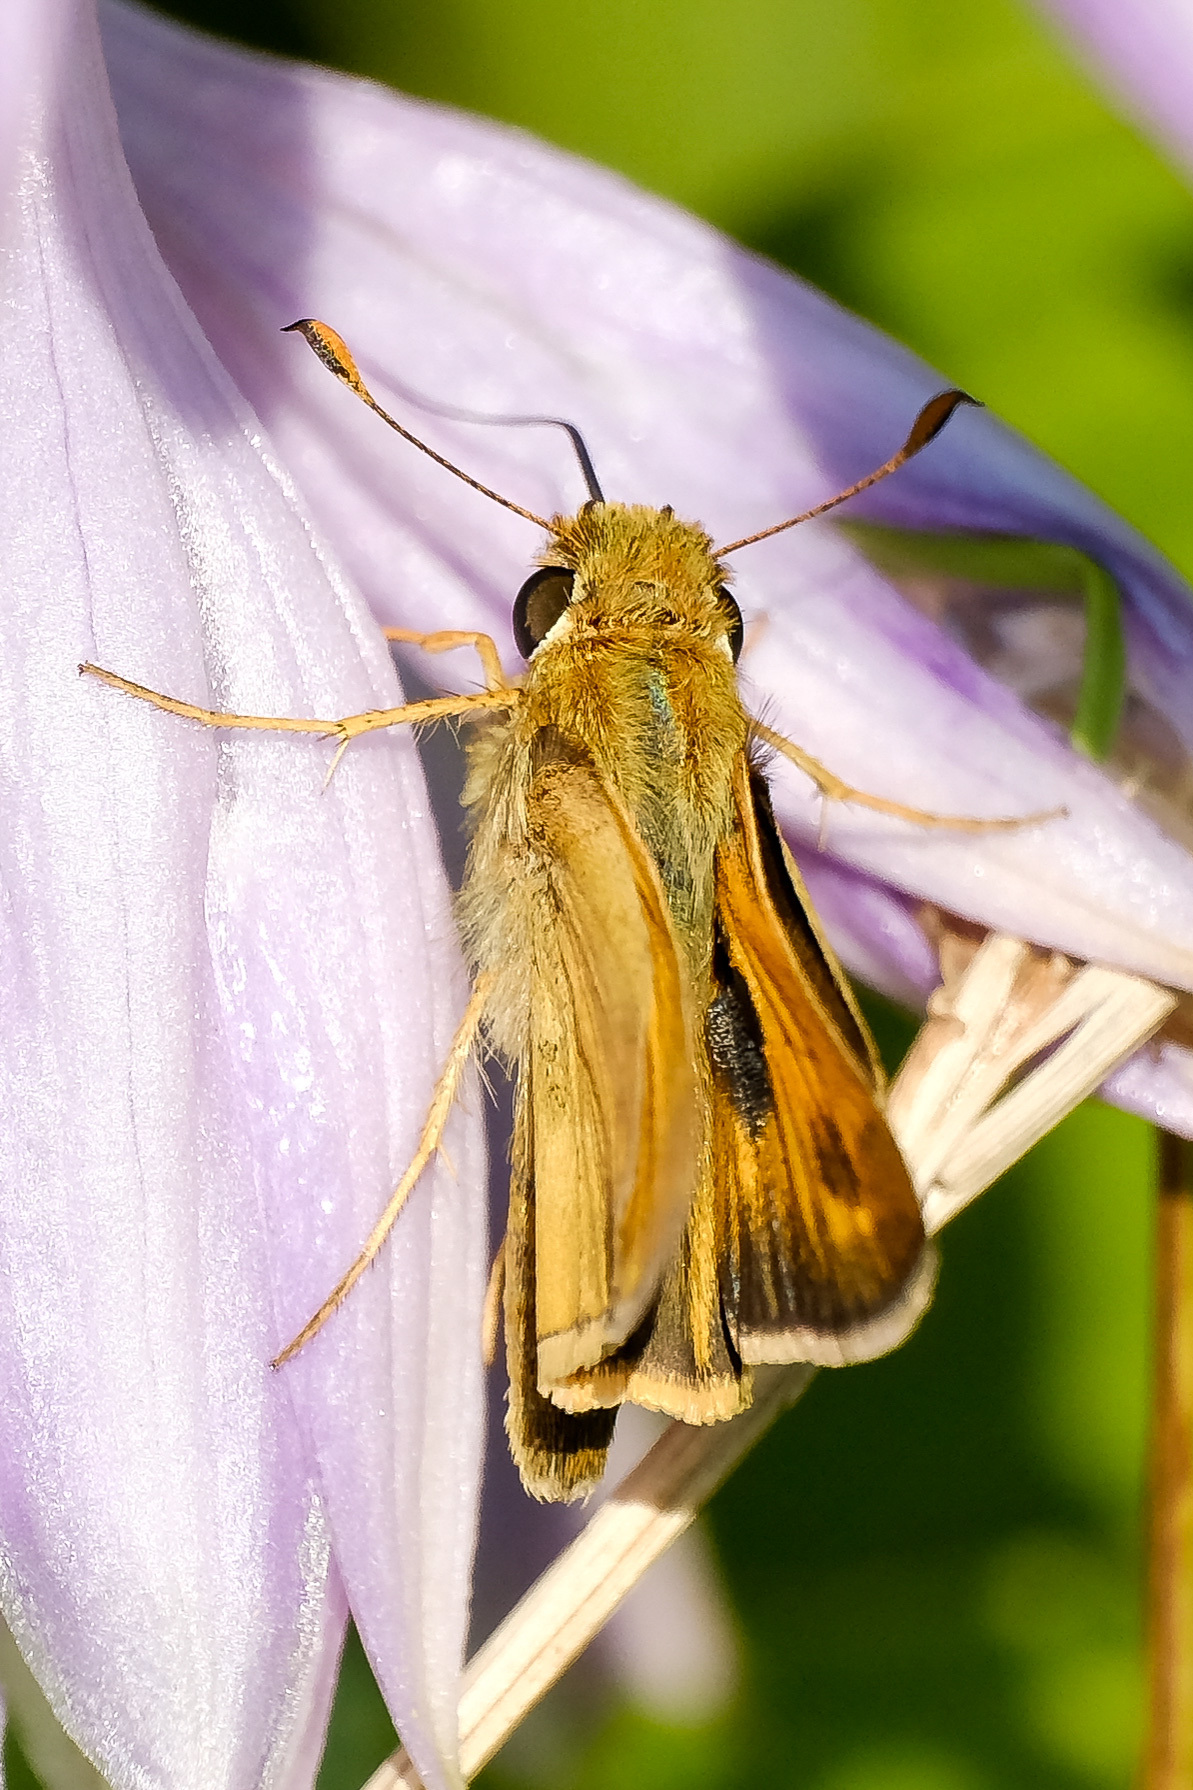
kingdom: Animalia
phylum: Arthropoda
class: Insecta
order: Lepidoptera
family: Hesperiidae
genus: Atalopedes
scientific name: Atalopedes
